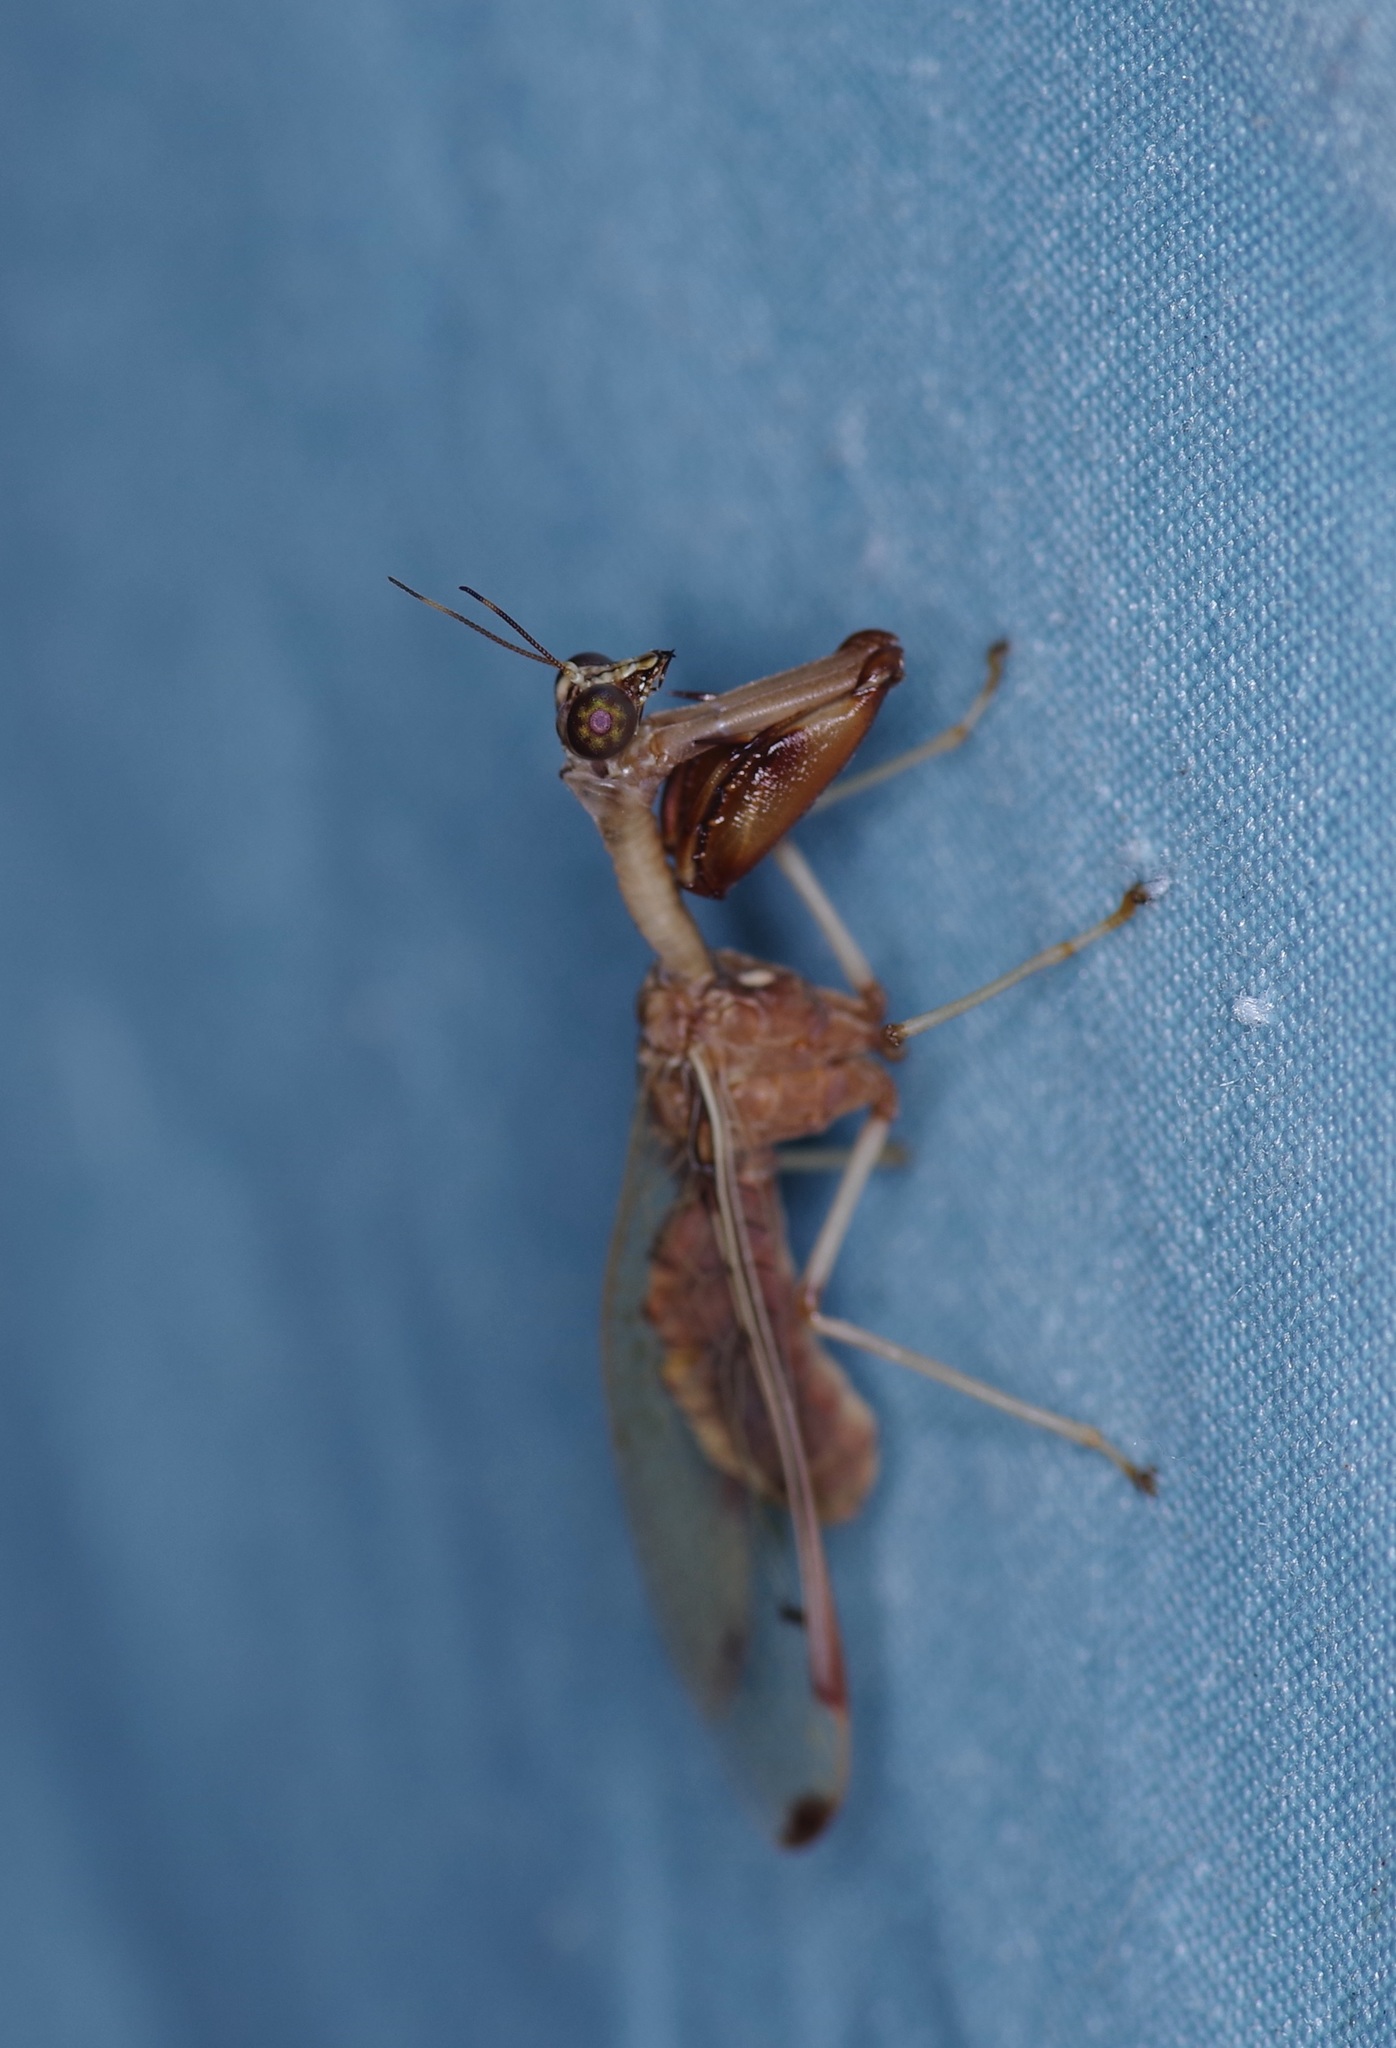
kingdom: Animalia
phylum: Arthropoda
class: Insecta
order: Neuroptera
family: Mantispidae
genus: Dicromantispa
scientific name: Dicromantispa interrupta
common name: Four-spotted mantidfly
